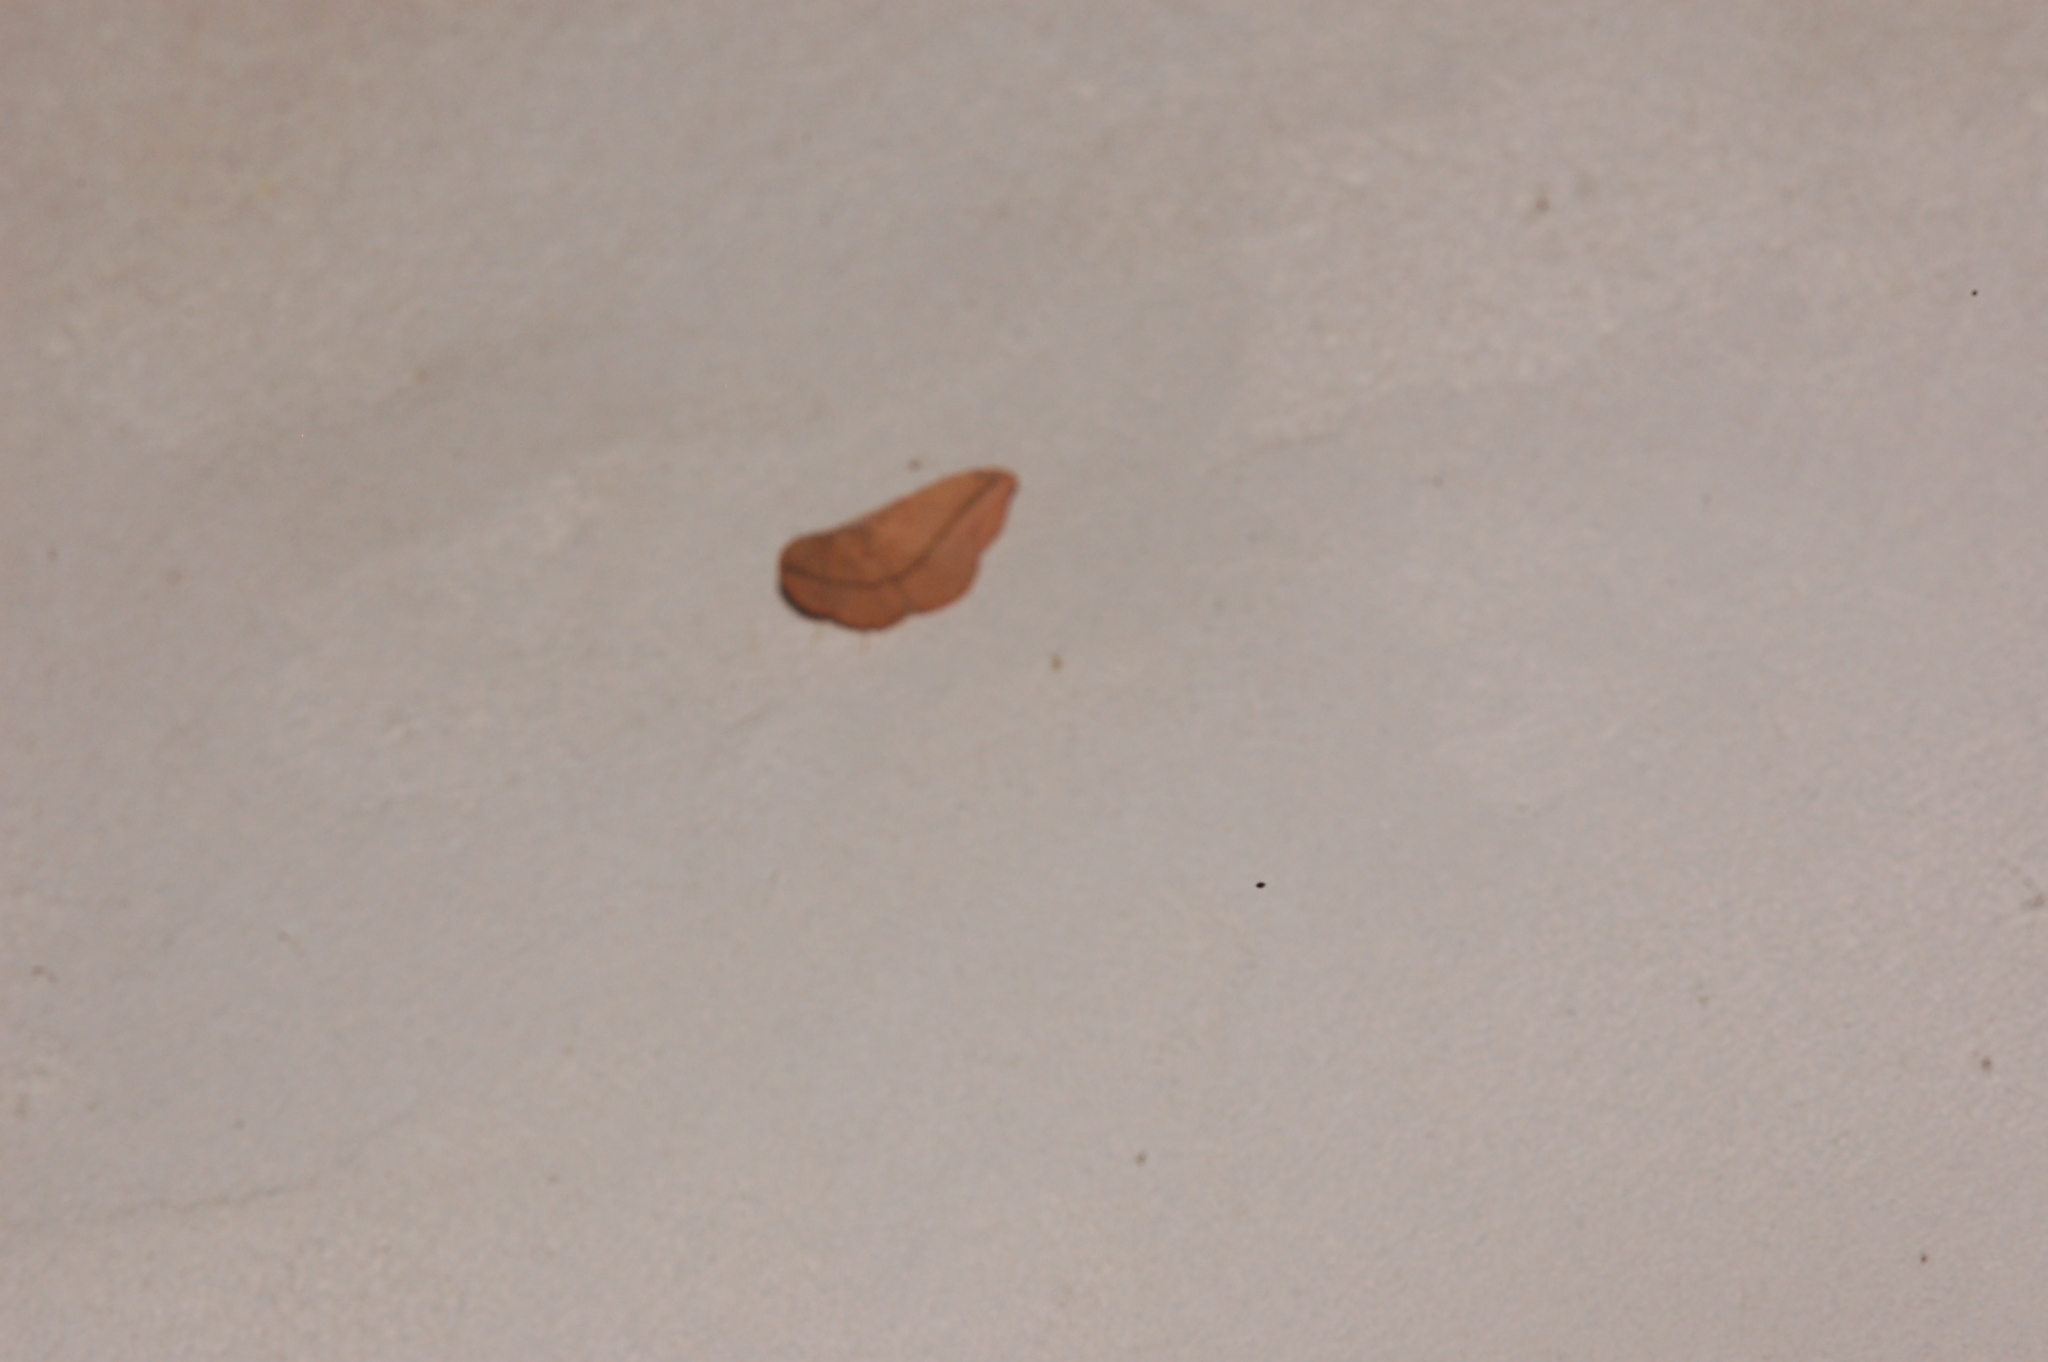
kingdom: Animalia
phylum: Arthropoda
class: Insecta
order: Lepidoptera
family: Geometridae
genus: Patalene
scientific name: Patalene olyzonaria
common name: Juniper geometer moth
